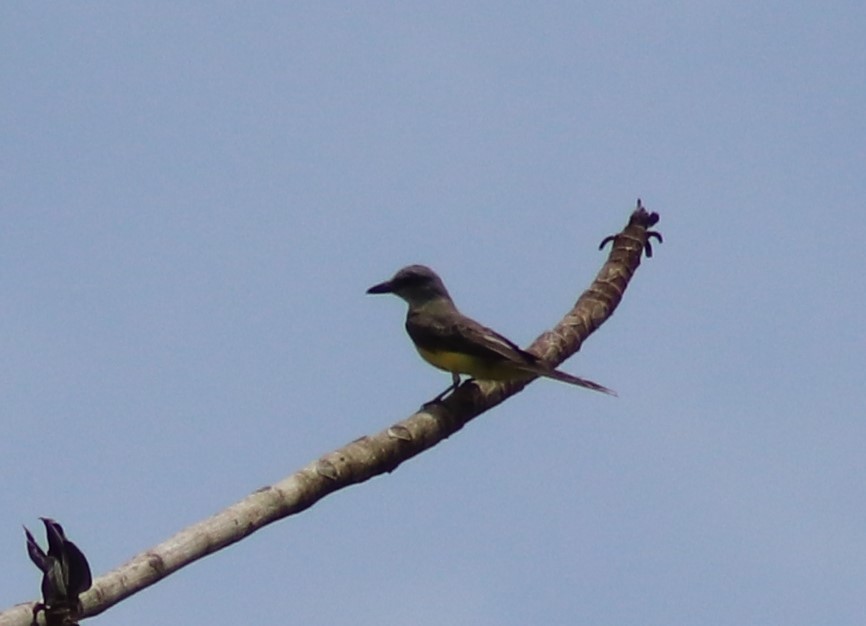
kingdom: Animalia
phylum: Chordata
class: Aves
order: Passeriformes
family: Tyrannidae
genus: Tyrannus
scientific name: Tyrannus melancholicus
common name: Tropical kingbird
